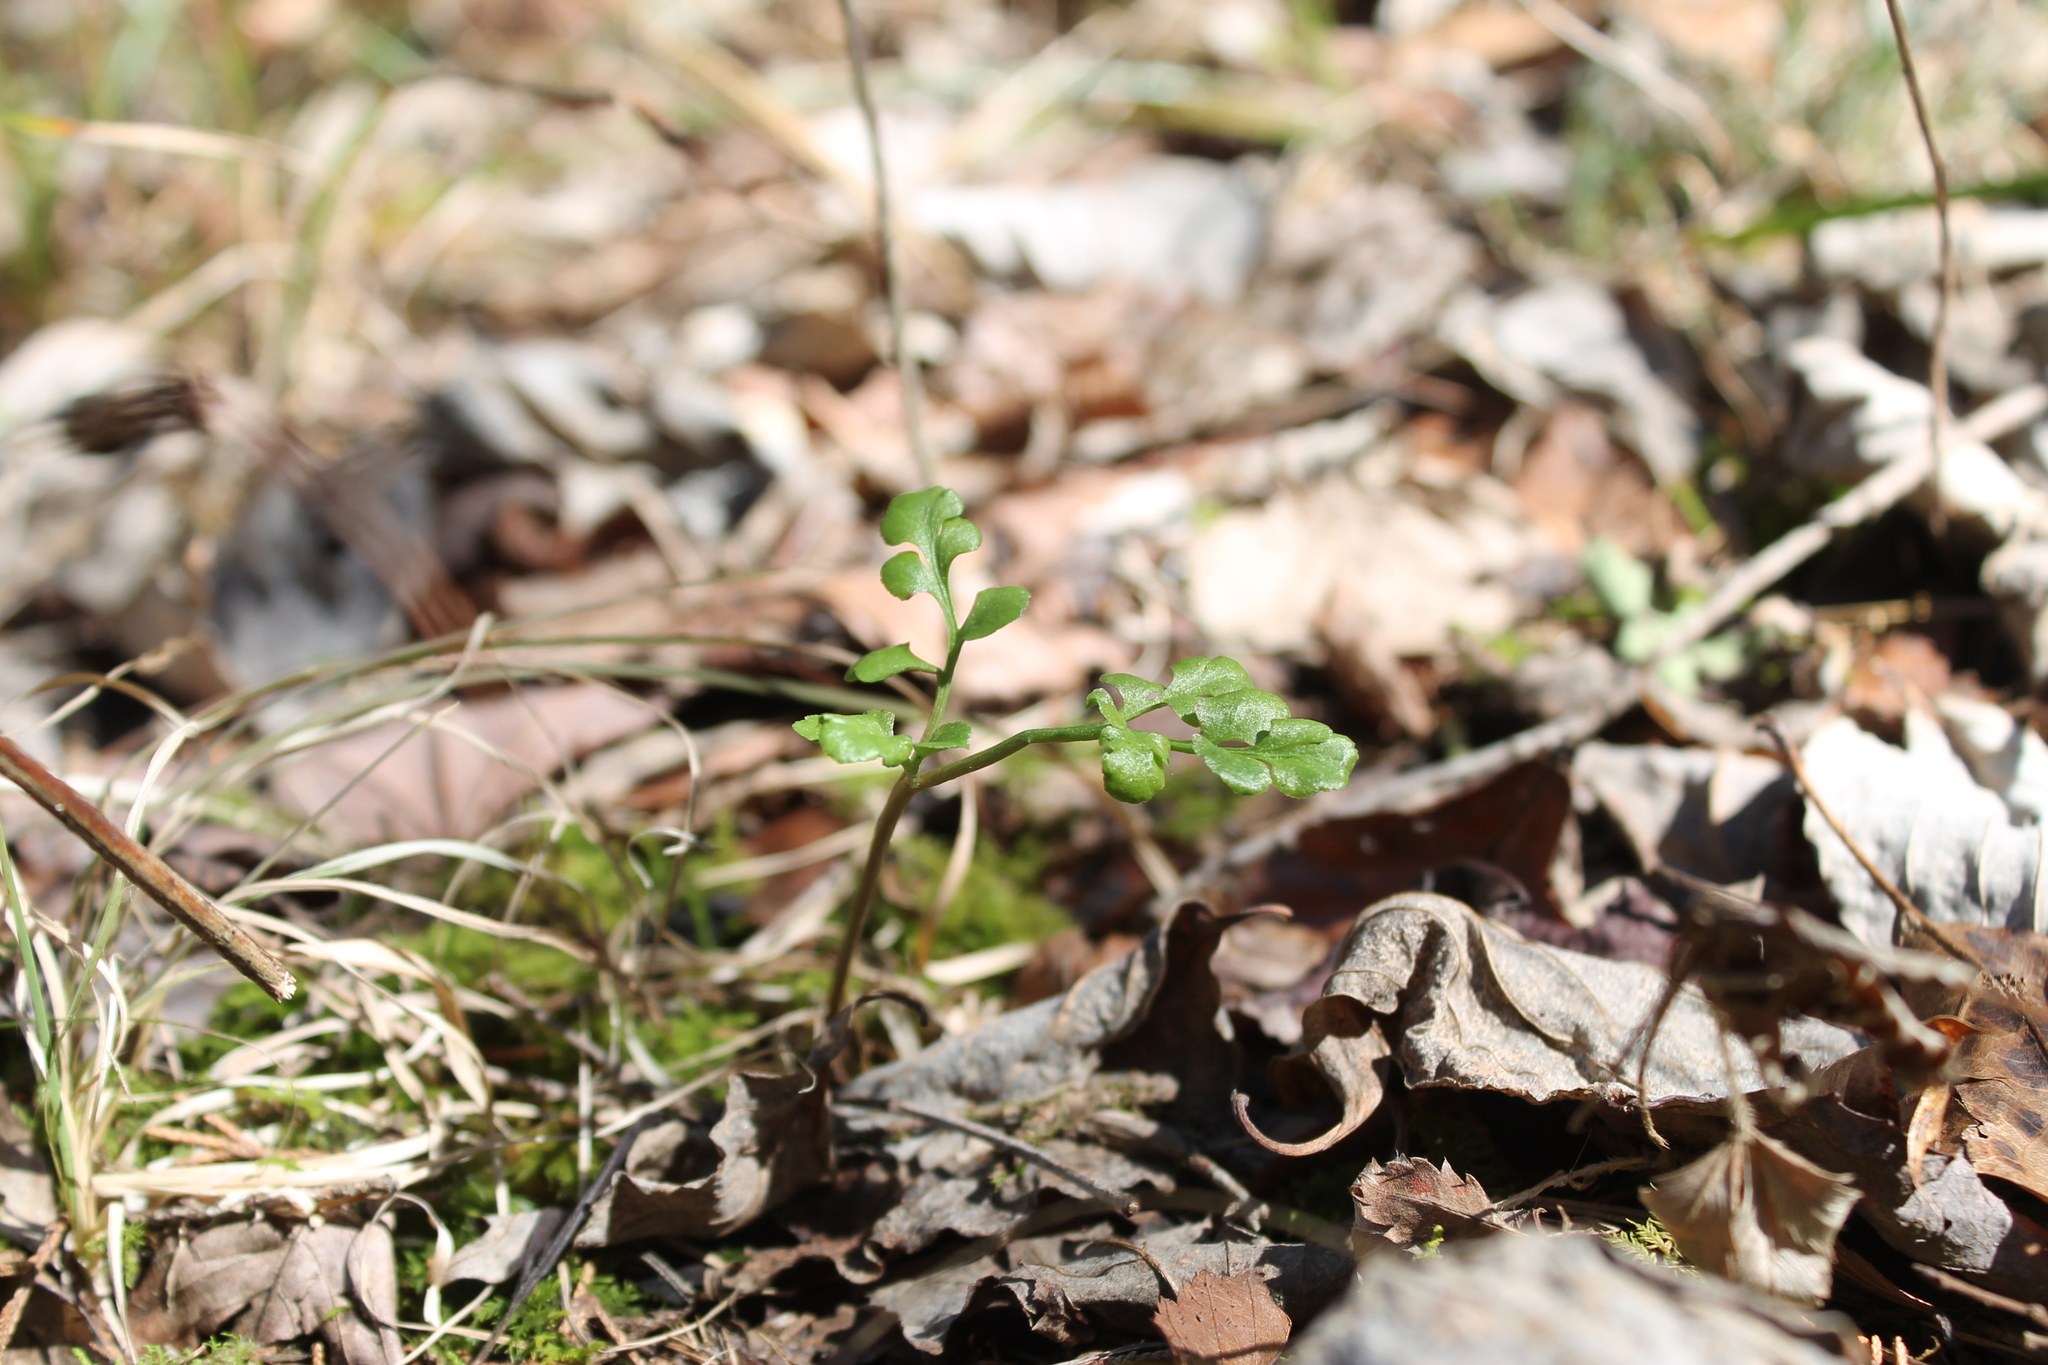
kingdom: Plantae
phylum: Tracheophyta
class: Polypodiopsida
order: Ophioglossales
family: Ophioglossaceae
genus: Sceptridium
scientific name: Sceptridium jenmanii
